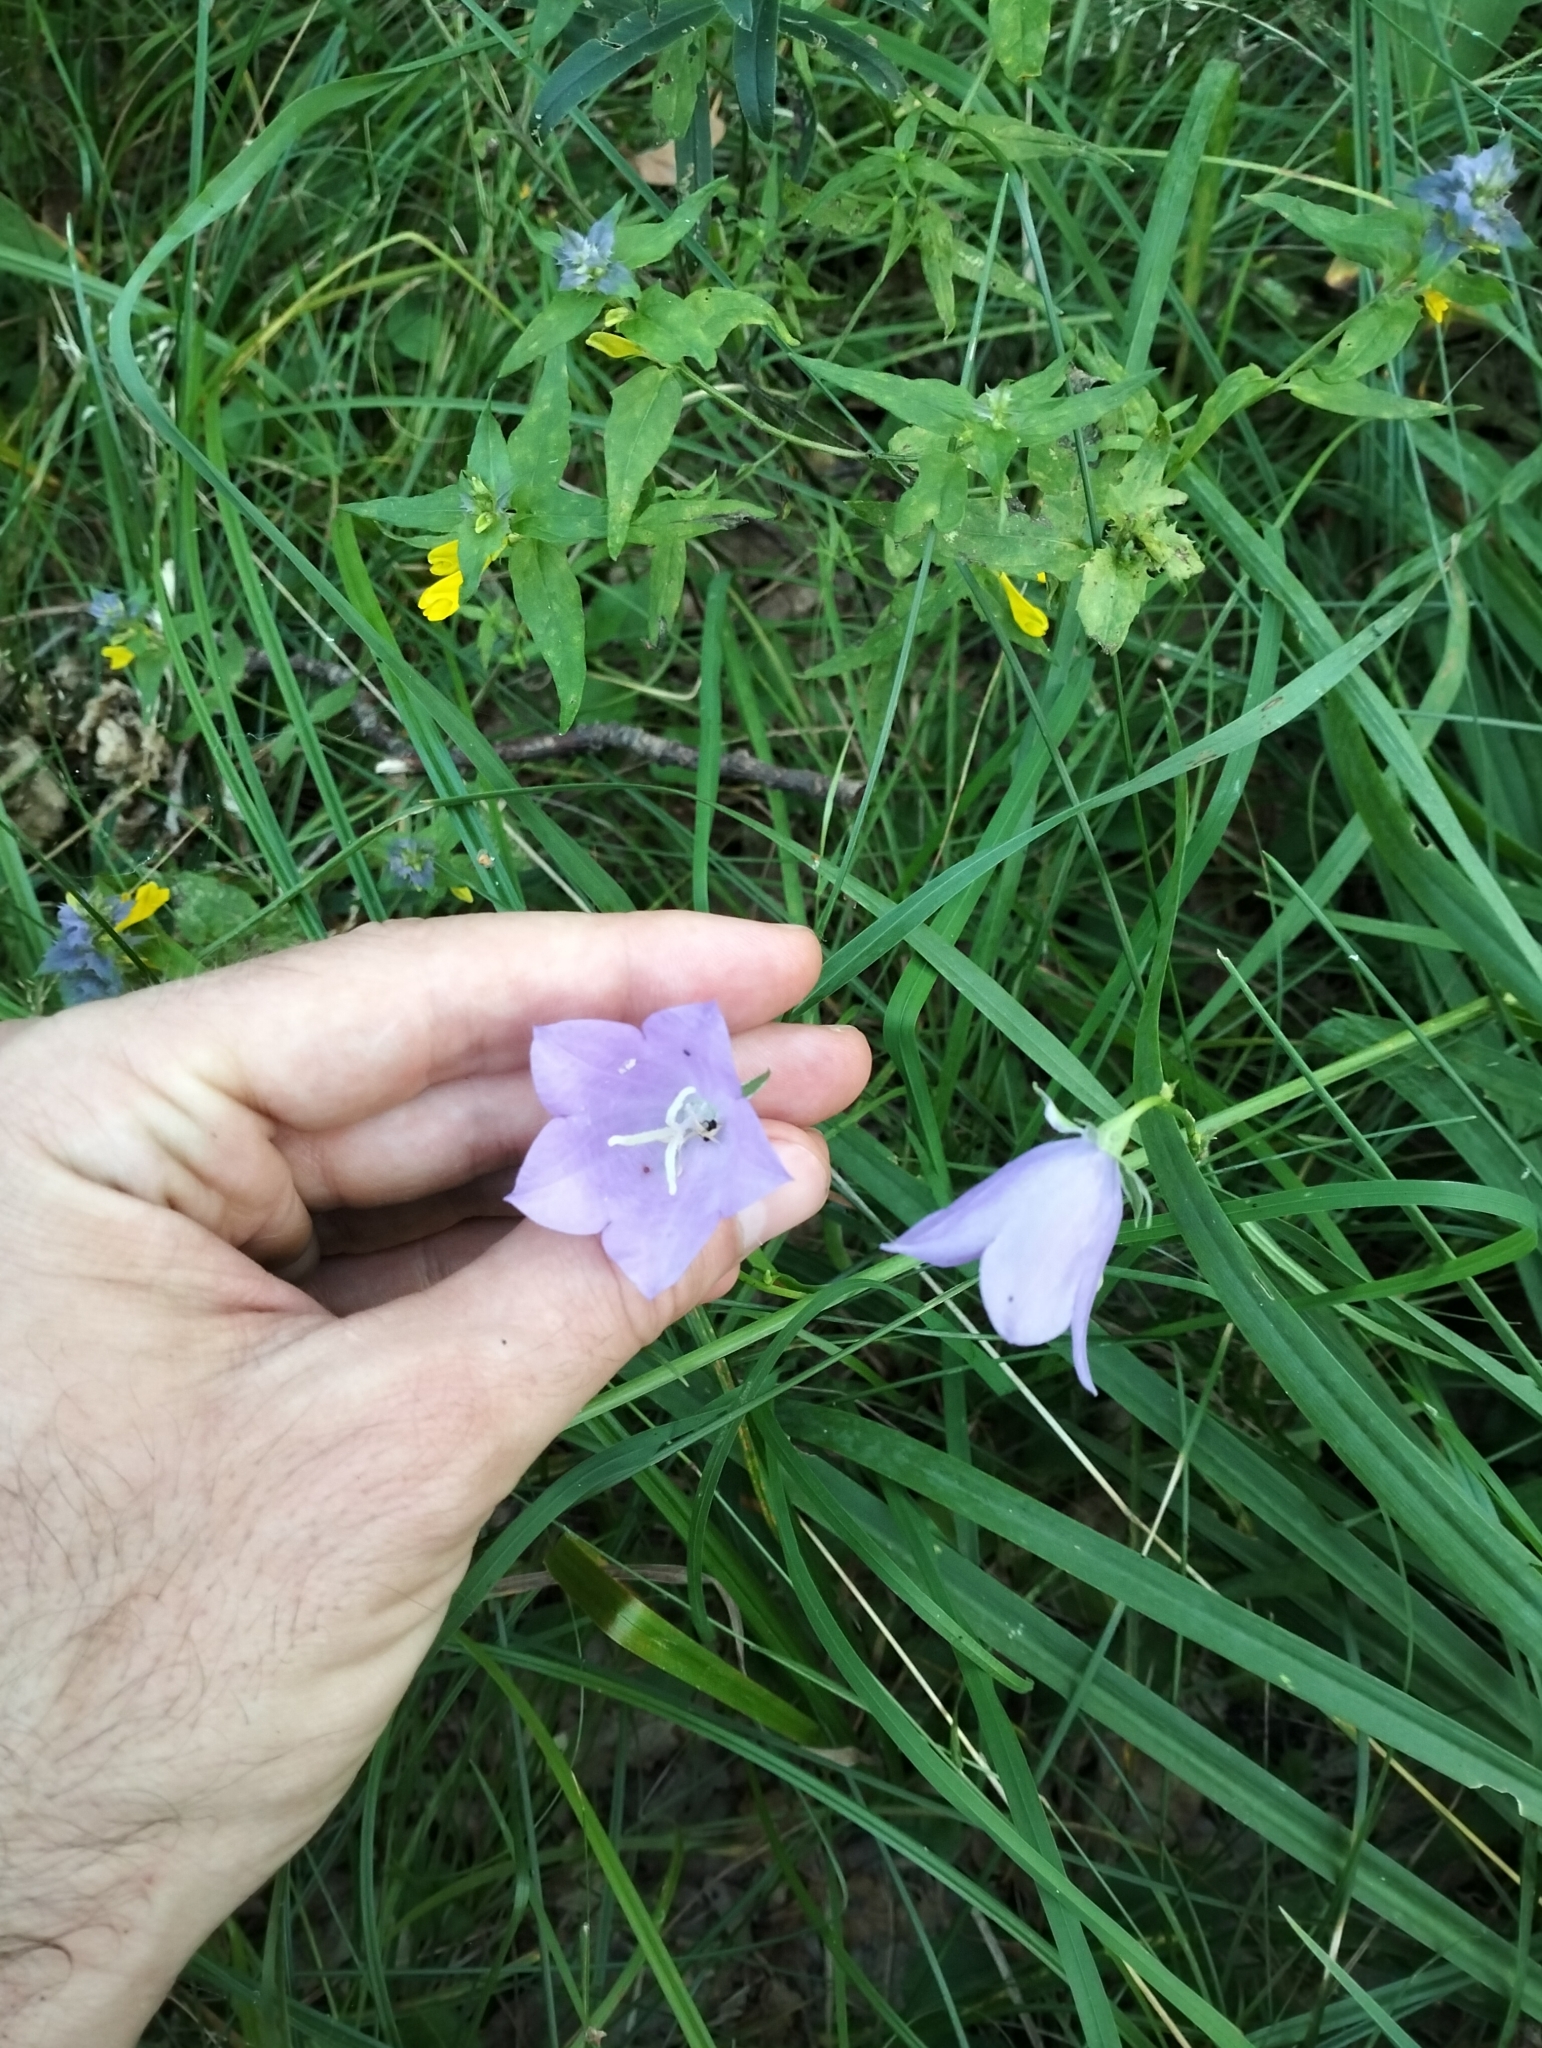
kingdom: Plantae
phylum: Tracheophyta
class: Magnoliopsida
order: Asterales
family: Campanulaceae
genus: Campanula
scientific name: Campanula persicifolia
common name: Peach-leaved bellflower
